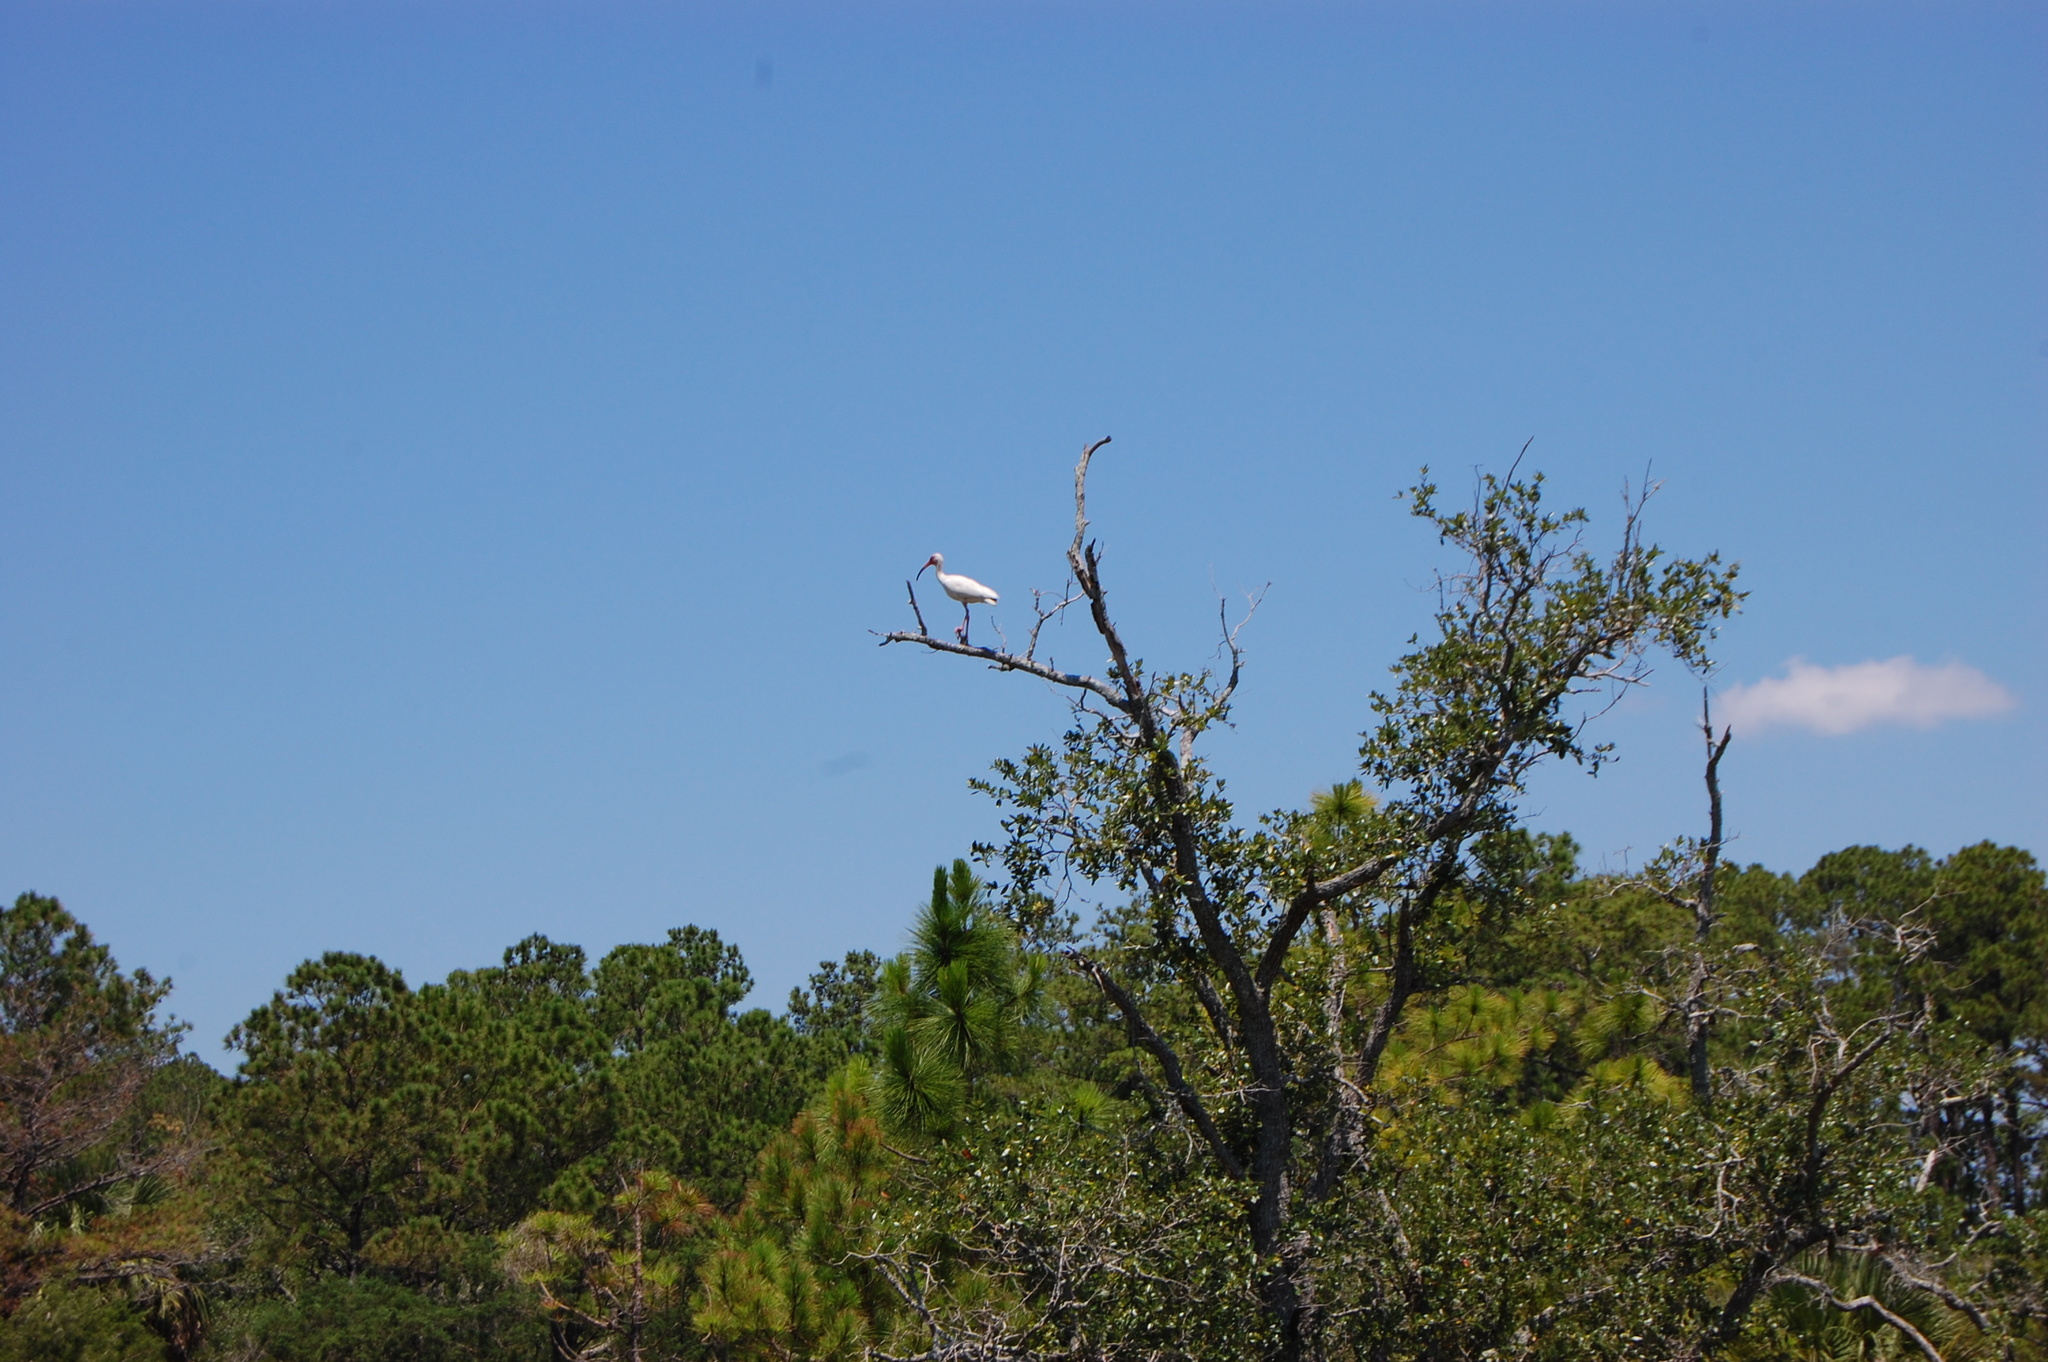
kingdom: Animalia
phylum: Chordata
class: Aves
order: Pelecaniformes
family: Threskiornithidae
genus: Eudocimus
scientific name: Eudocimus albus
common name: White ibis
